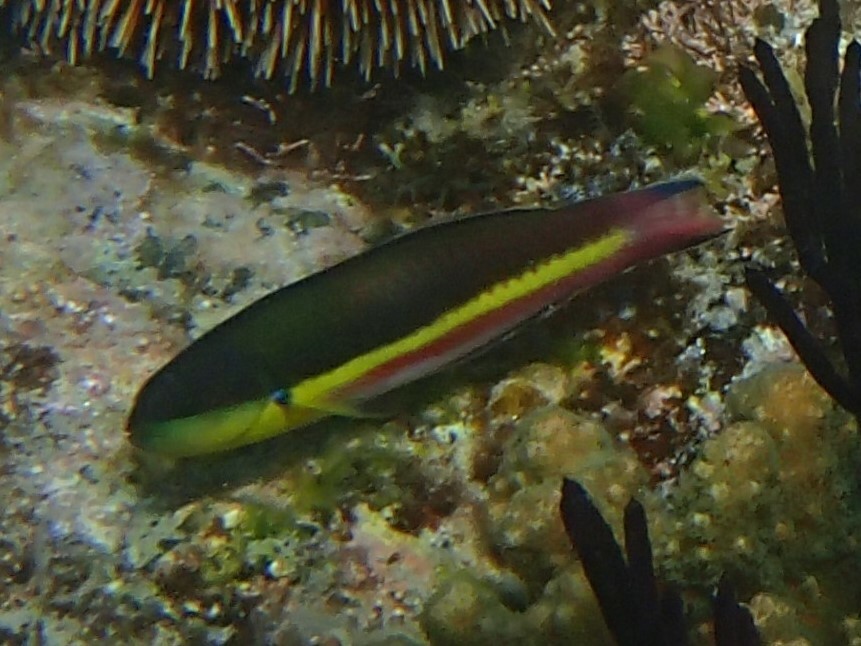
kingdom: Animalia
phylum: Chordata
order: Perciformes
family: Labridae
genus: Thalassoma
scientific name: Thalassoma lucasanum
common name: Cortez rainbow wrasse
